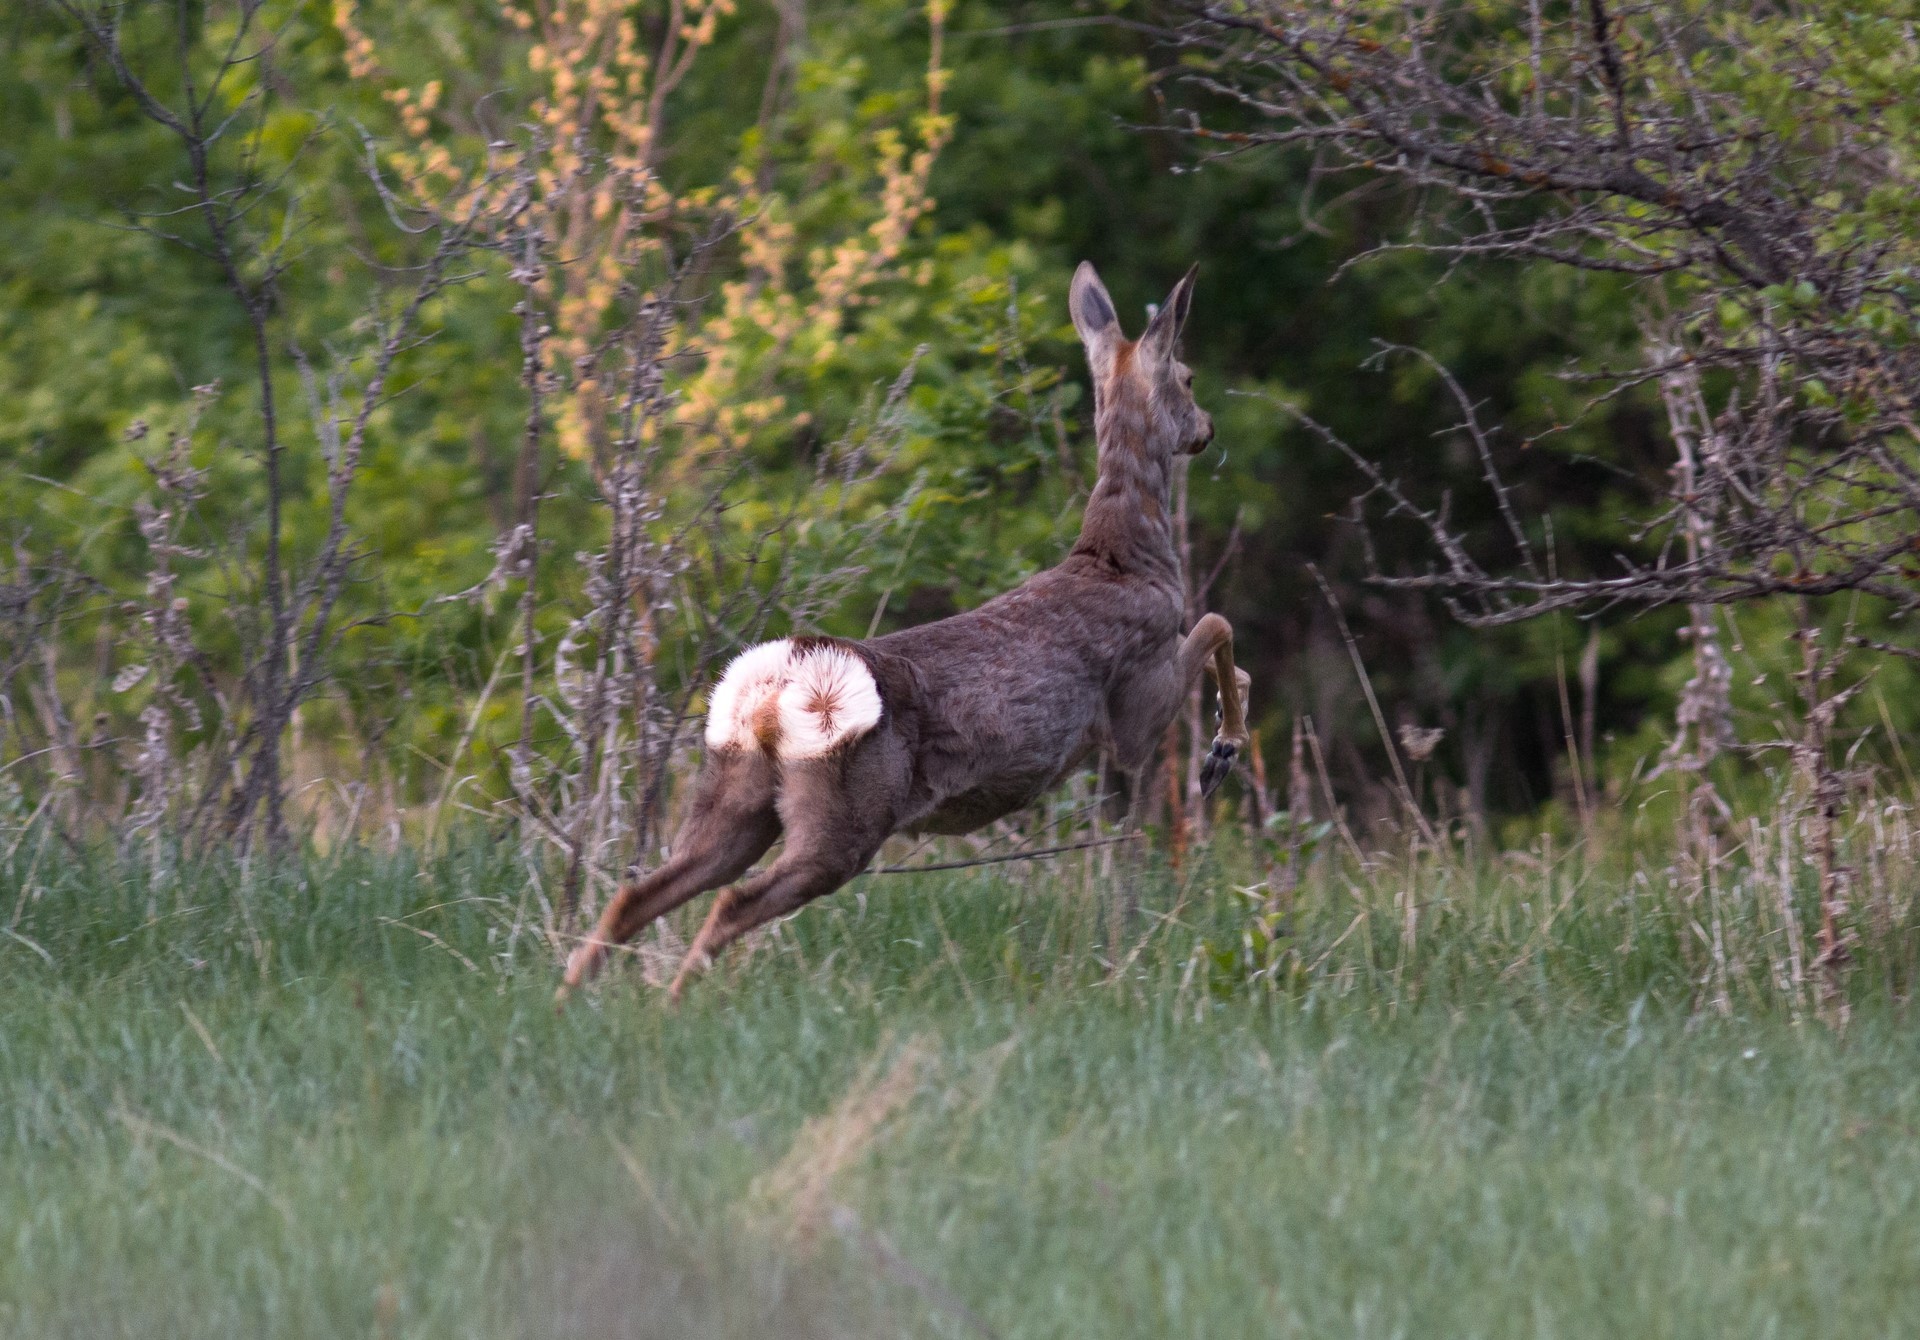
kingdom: Animalia
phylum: Chordata
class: Mammalia
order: Artiodactyla
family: Cervidae
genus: Capreolus
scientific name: Capreolus pygargus
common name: Siberian roe
